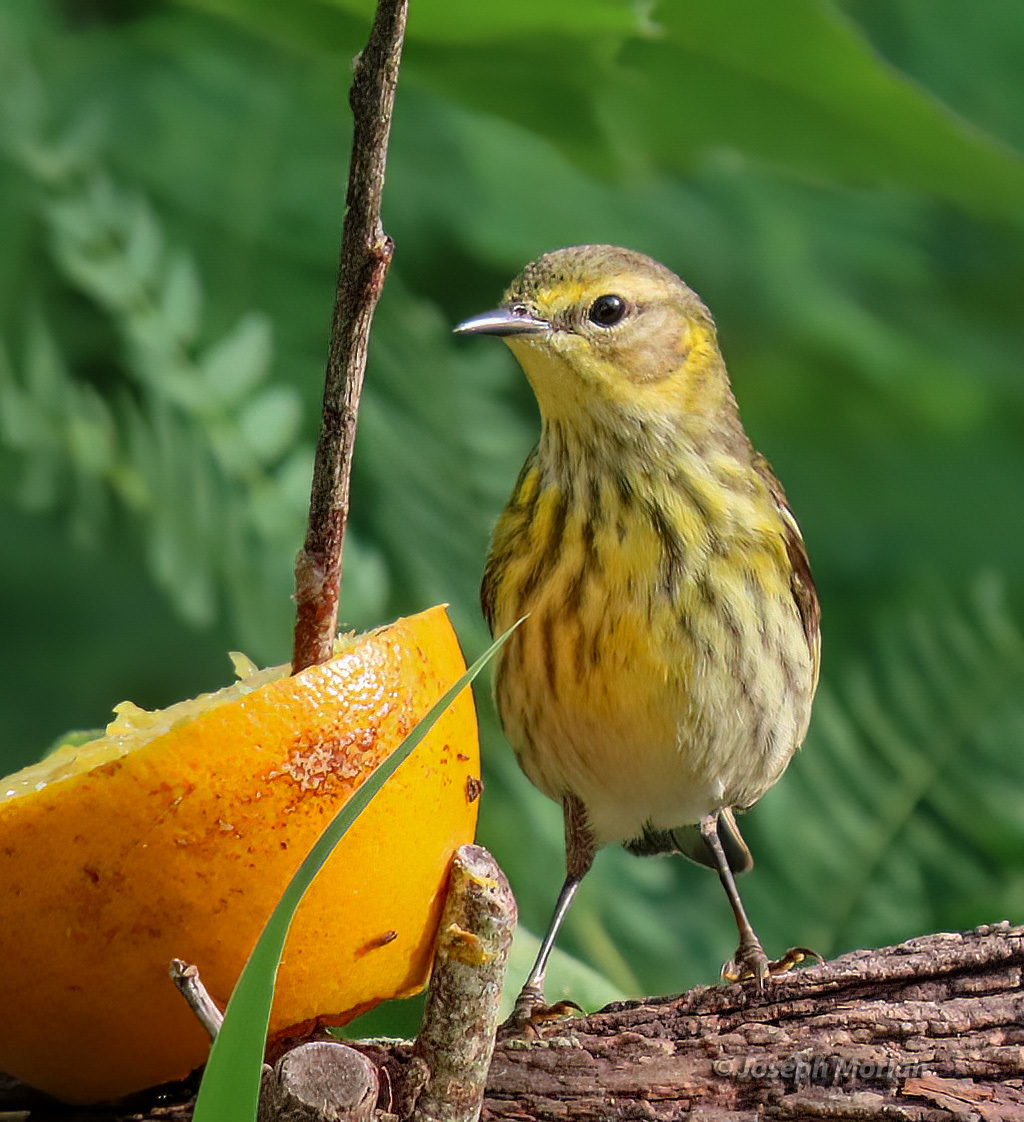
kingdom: Animalia
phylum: Chordata
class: Aves
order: Passeriformes
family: Parulidae
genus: Setophaga
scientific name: Setophaga tigrina
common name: Cape may warbler
